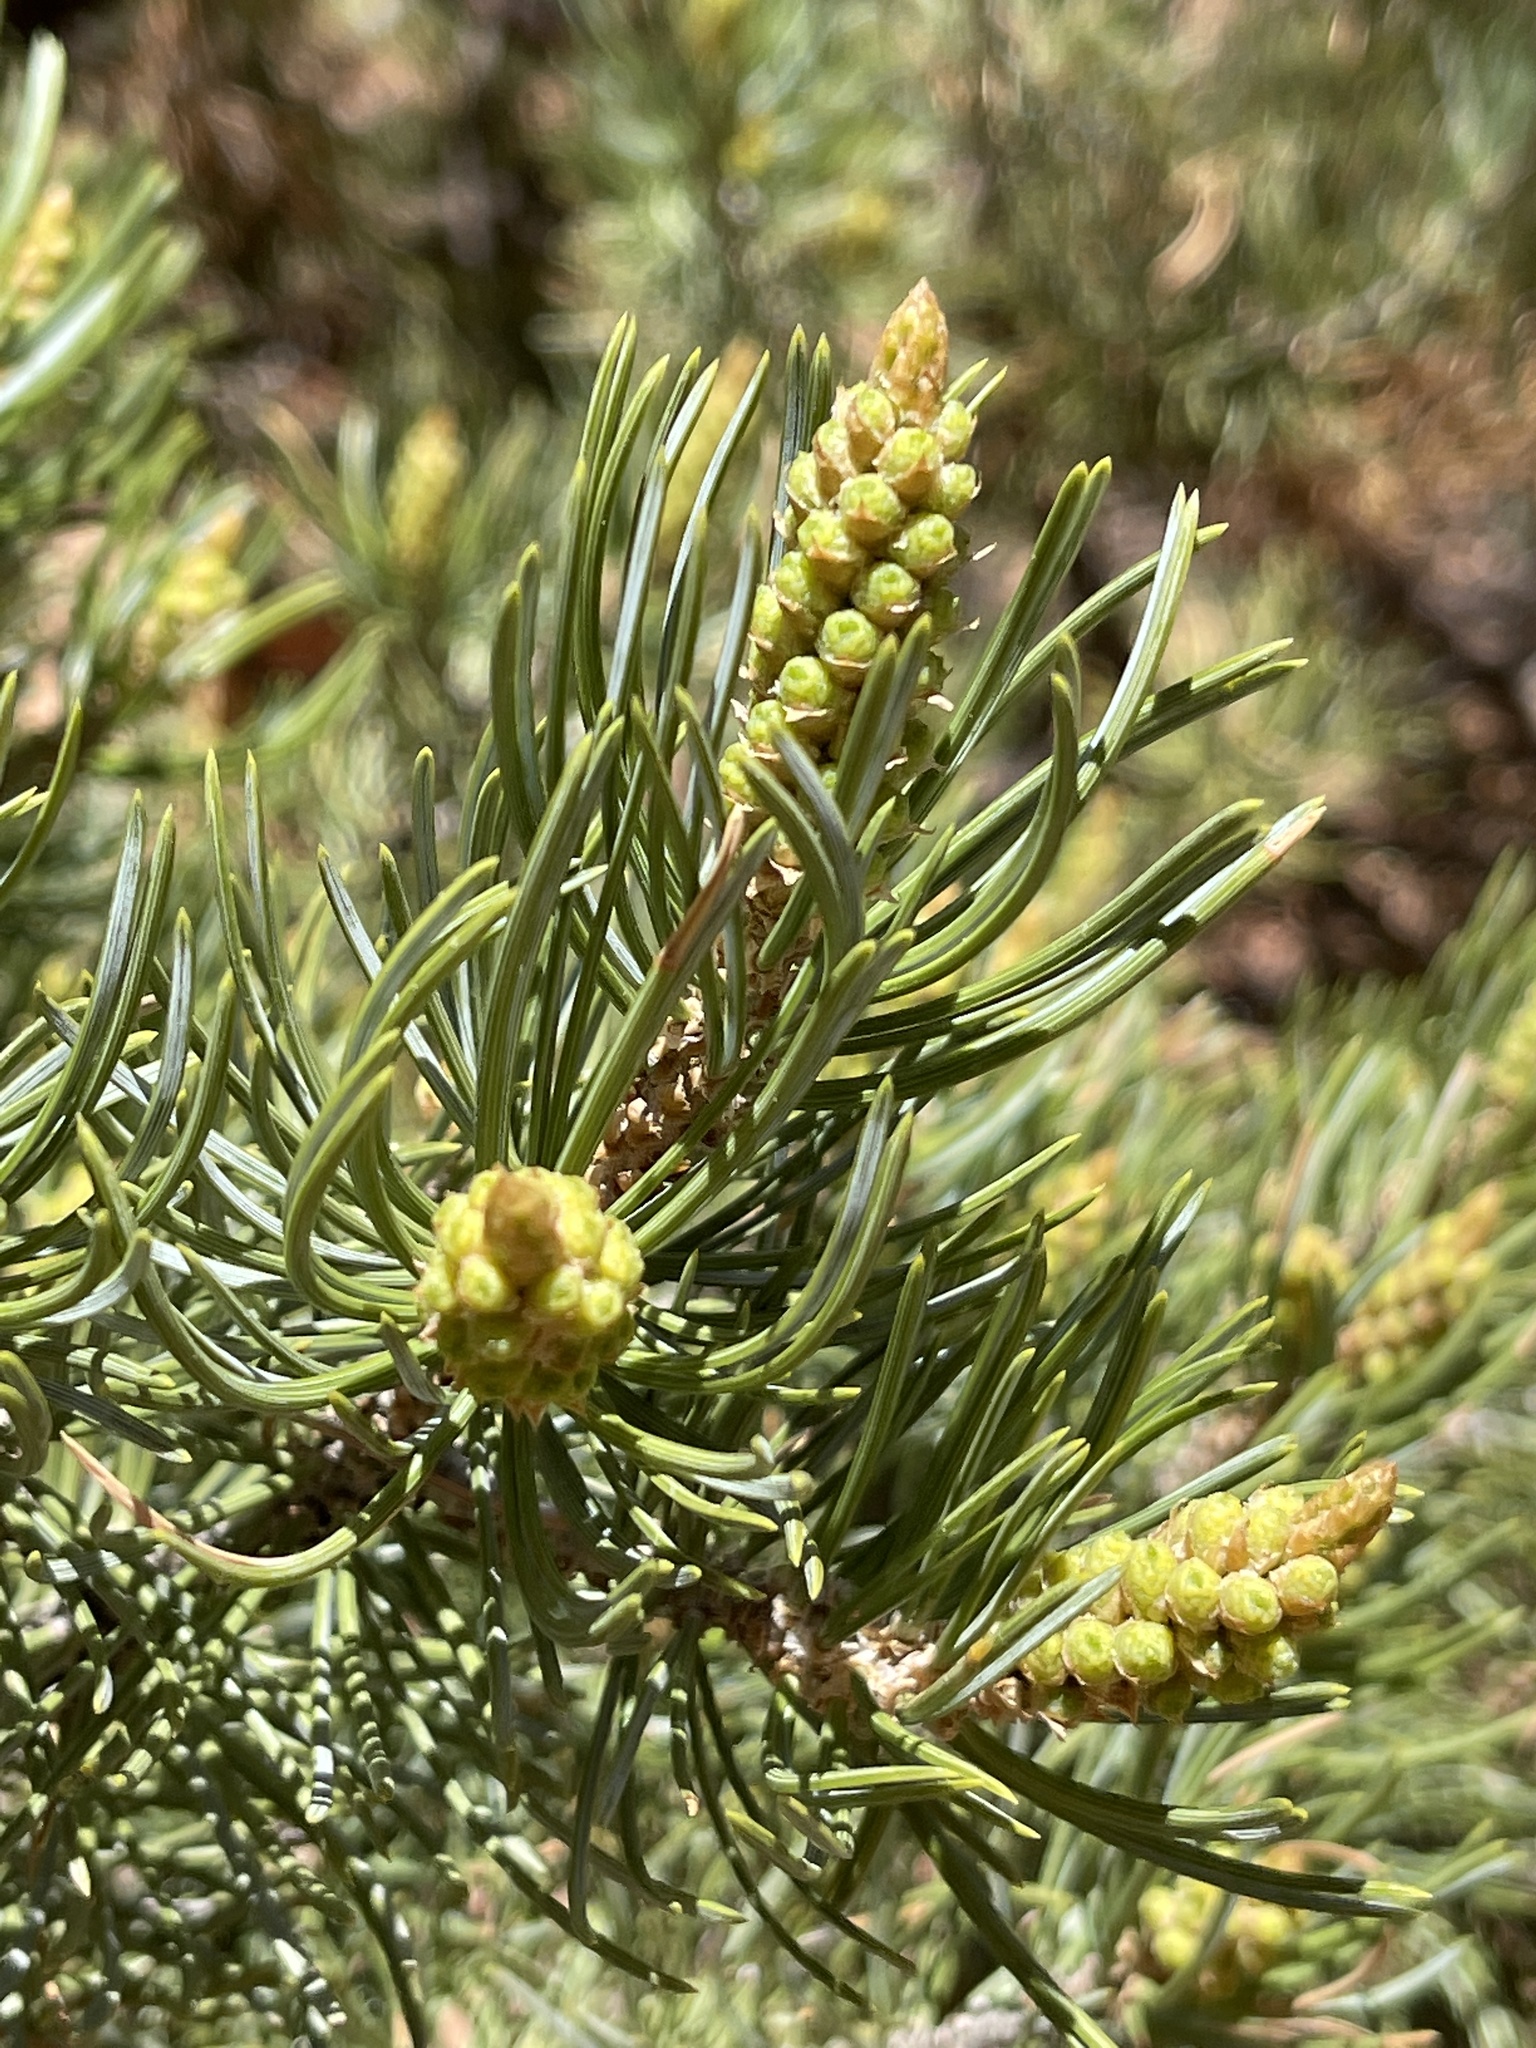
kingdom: Plantae
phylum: Tracheophyta
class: Pinopsida
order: Pinales
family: Pinaceae
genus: Pinus
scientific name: Pinus edulis
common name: Colorado pinyon
